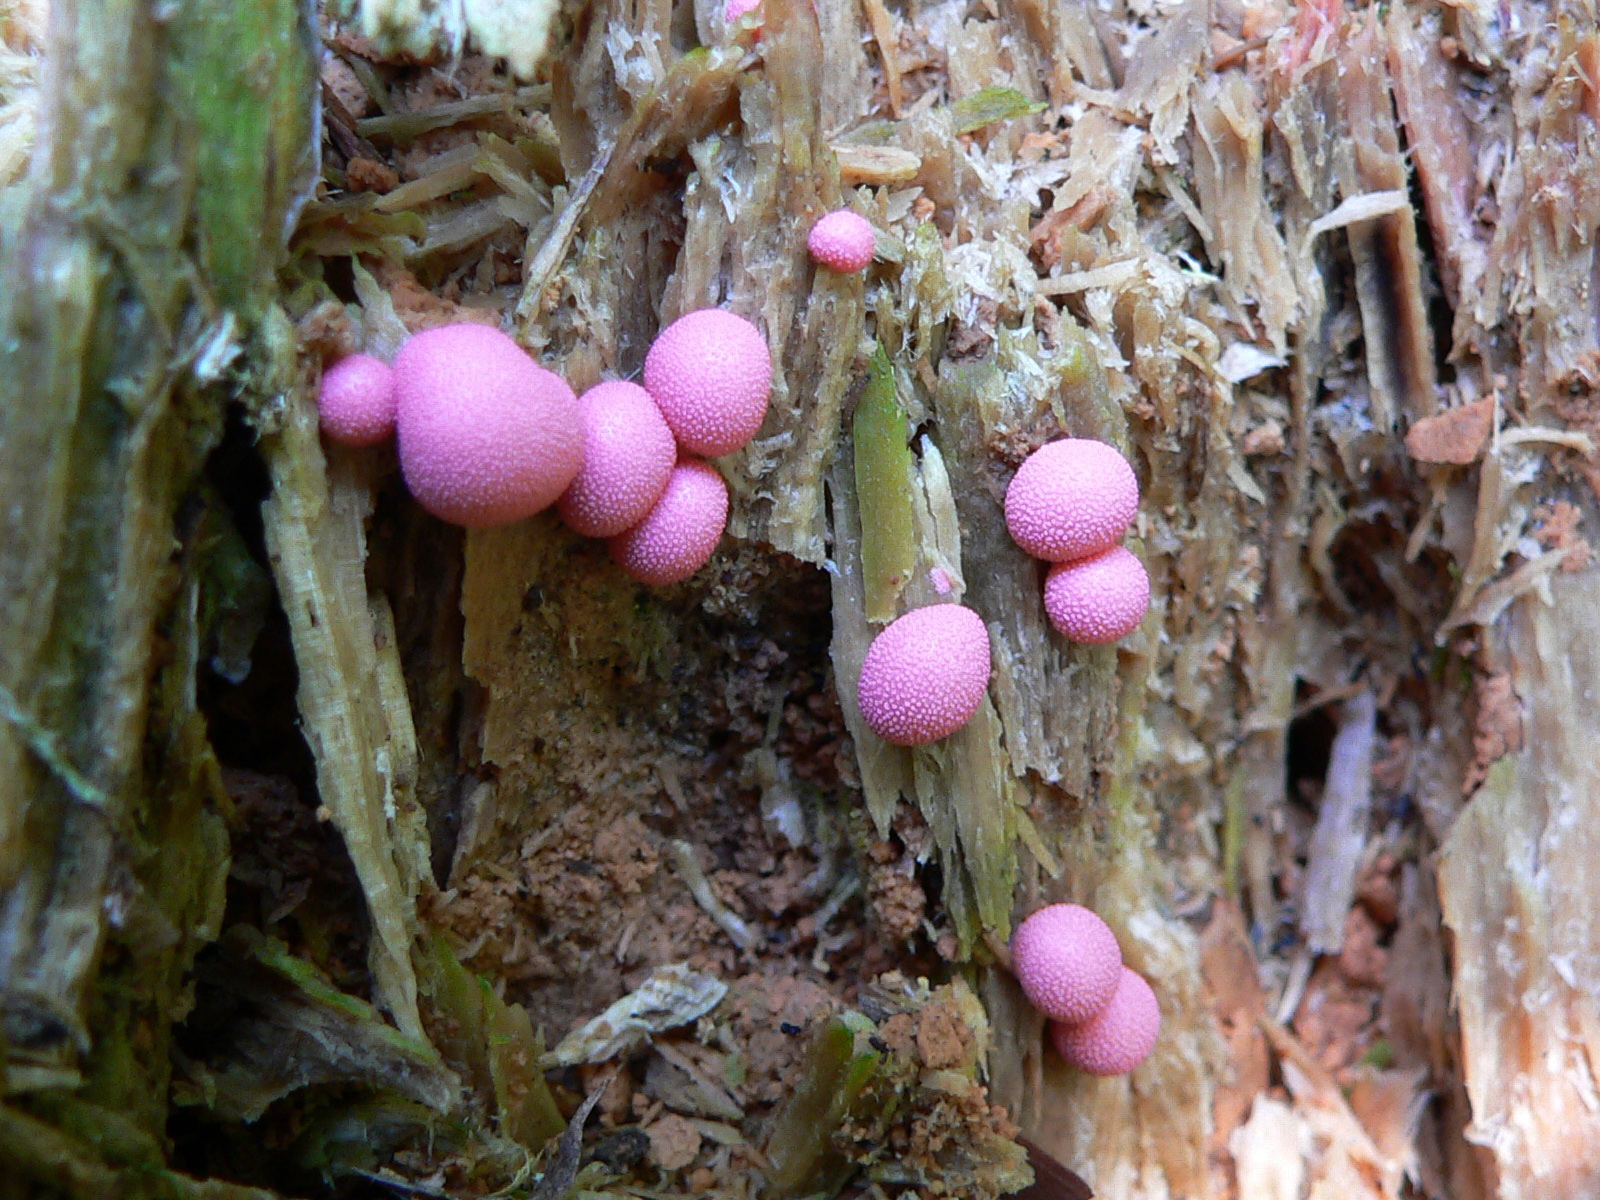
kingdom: Protozoa
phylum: Mycetozoa
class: Myxomycetes
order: Cribrariales
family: Tubiferaceae
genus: Lycogala
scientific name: Lycogala epidendrum
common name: Wolf's milk
